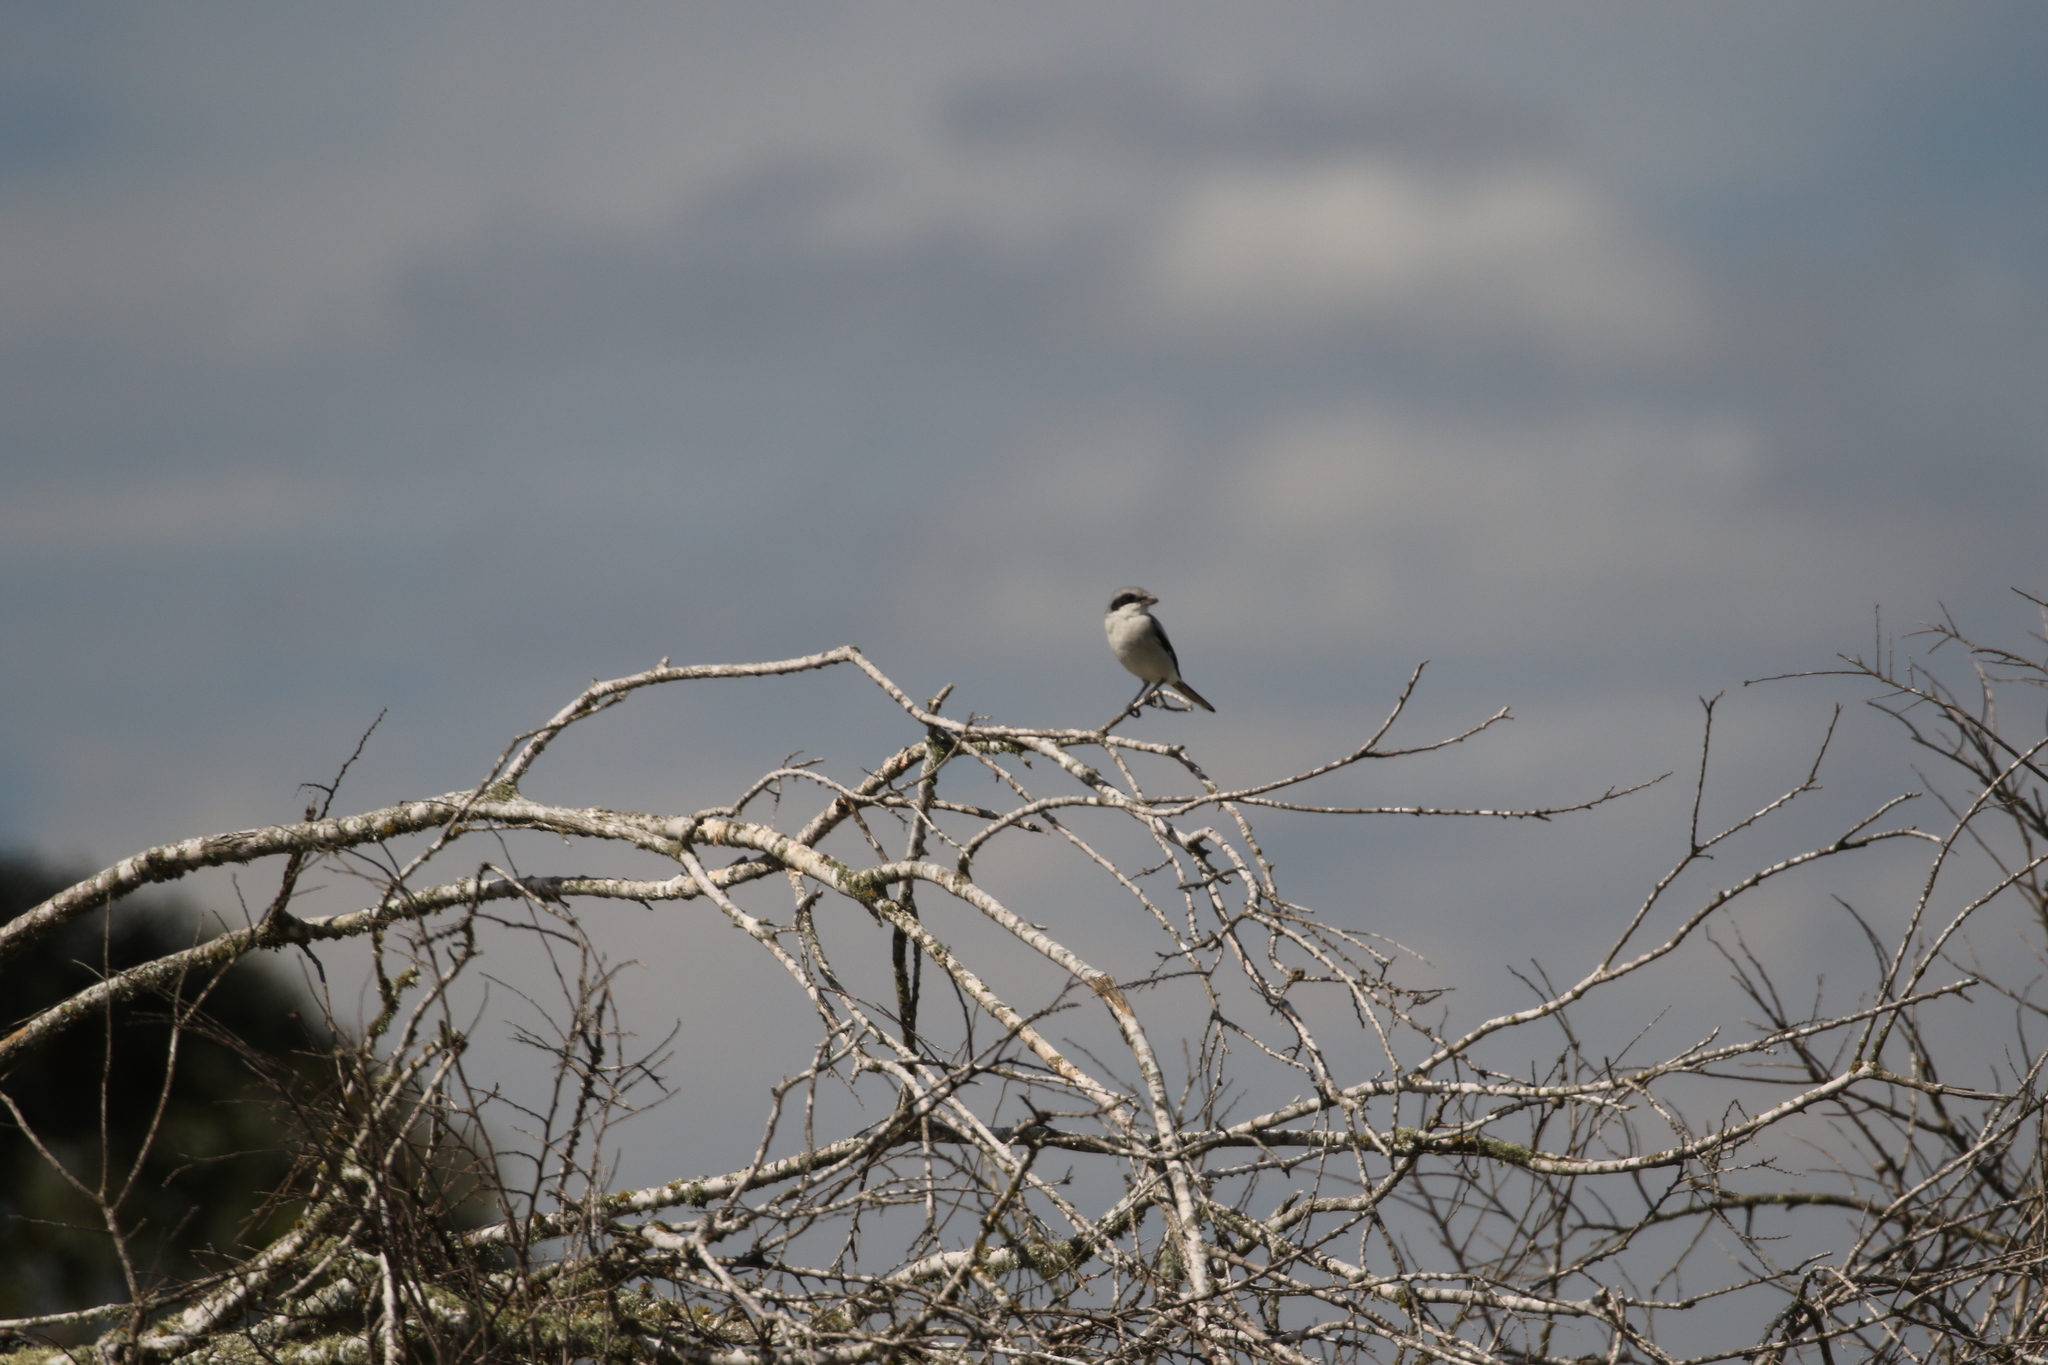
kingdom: Animalia
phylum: Chordata
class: Aves
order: Passeriformes
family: Laniidae
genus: Lanius
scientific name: Lanius ludovicianus
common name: Loggerhead shrike
